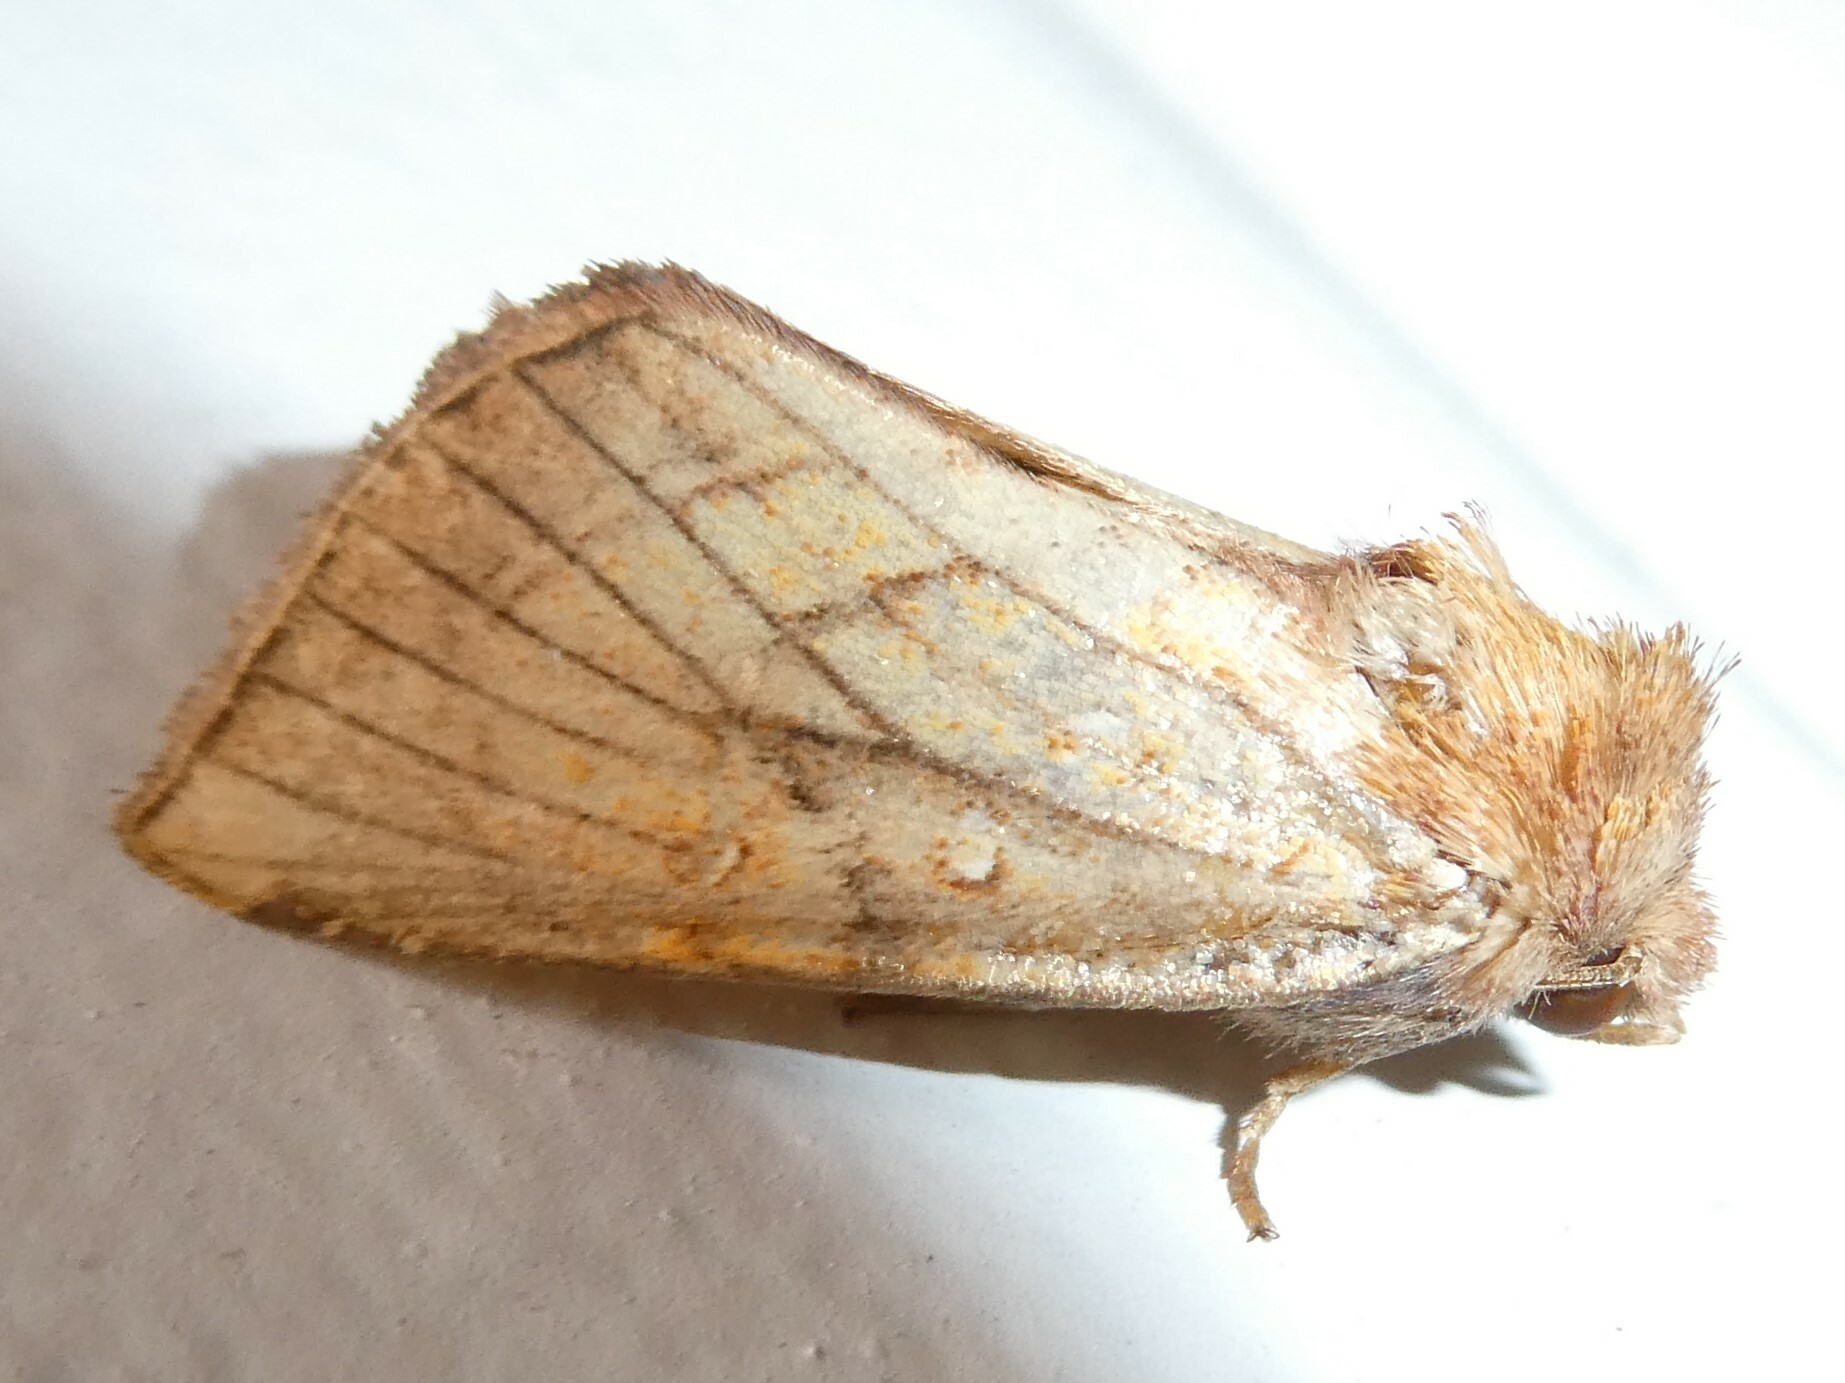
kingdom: Animalia
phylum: Arthropoda
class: Insecta
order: Lepidoptera
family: Noctuidae
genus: Papaipema
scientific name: Papaipema inquaesita
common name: Sensitive fern borer moth
